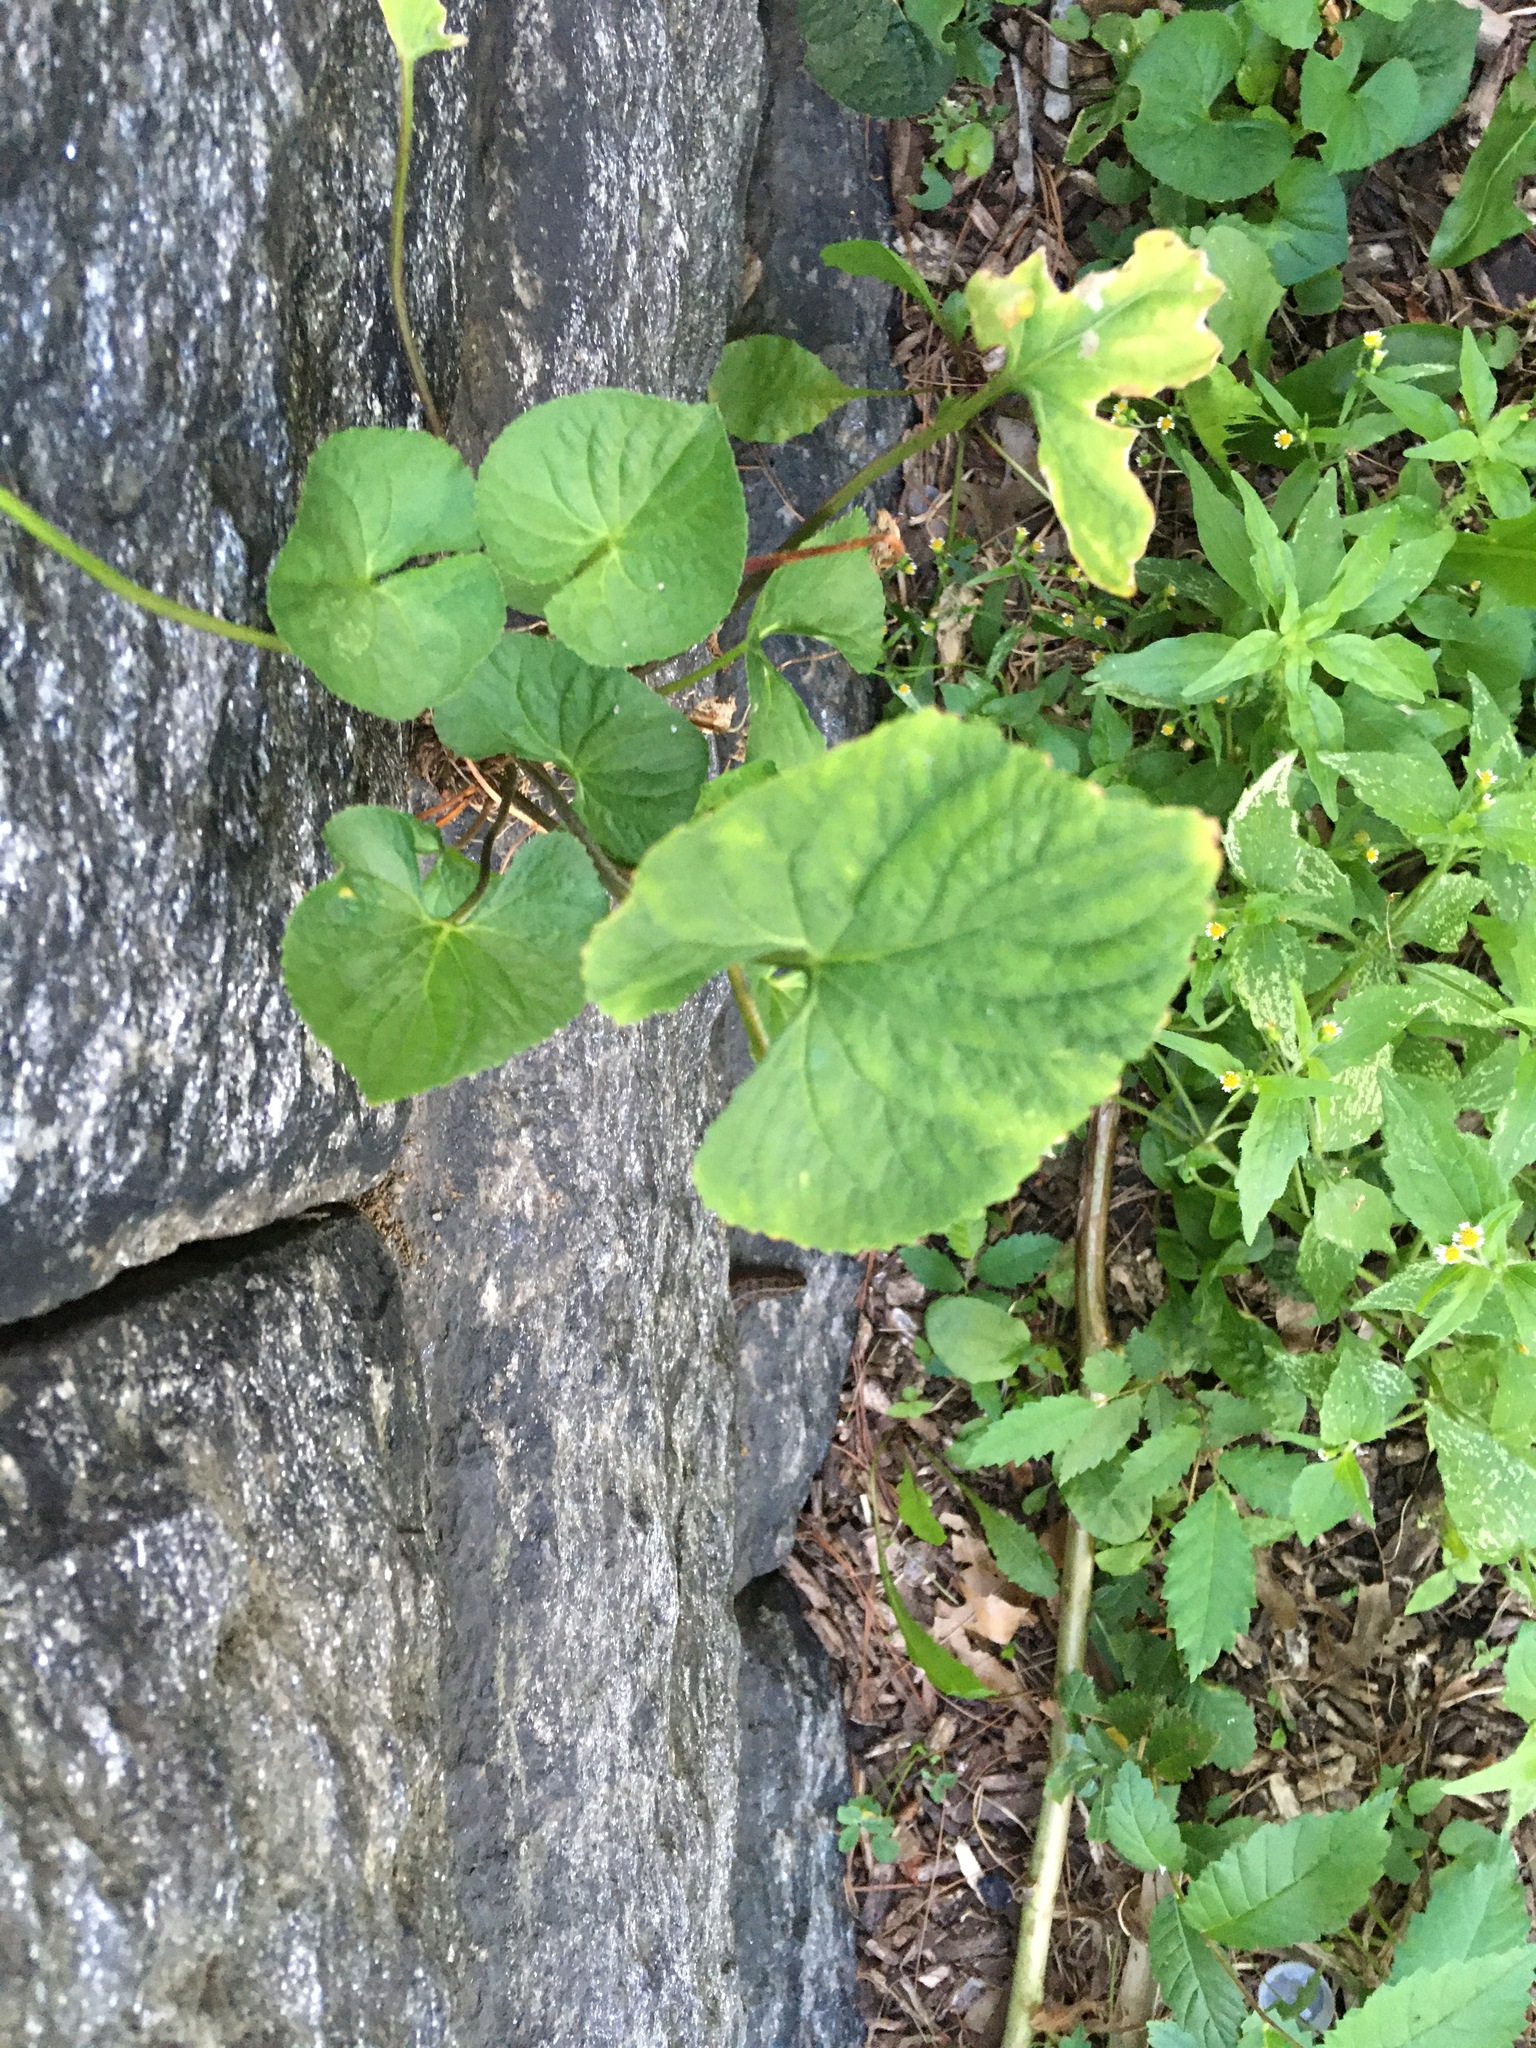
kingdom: Plantae
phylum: Tracheophyta
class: Magnoliopsida
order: Malpighiales
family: Violaceae
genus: Viola
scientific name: Viola sororia
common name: Dooryard violet
